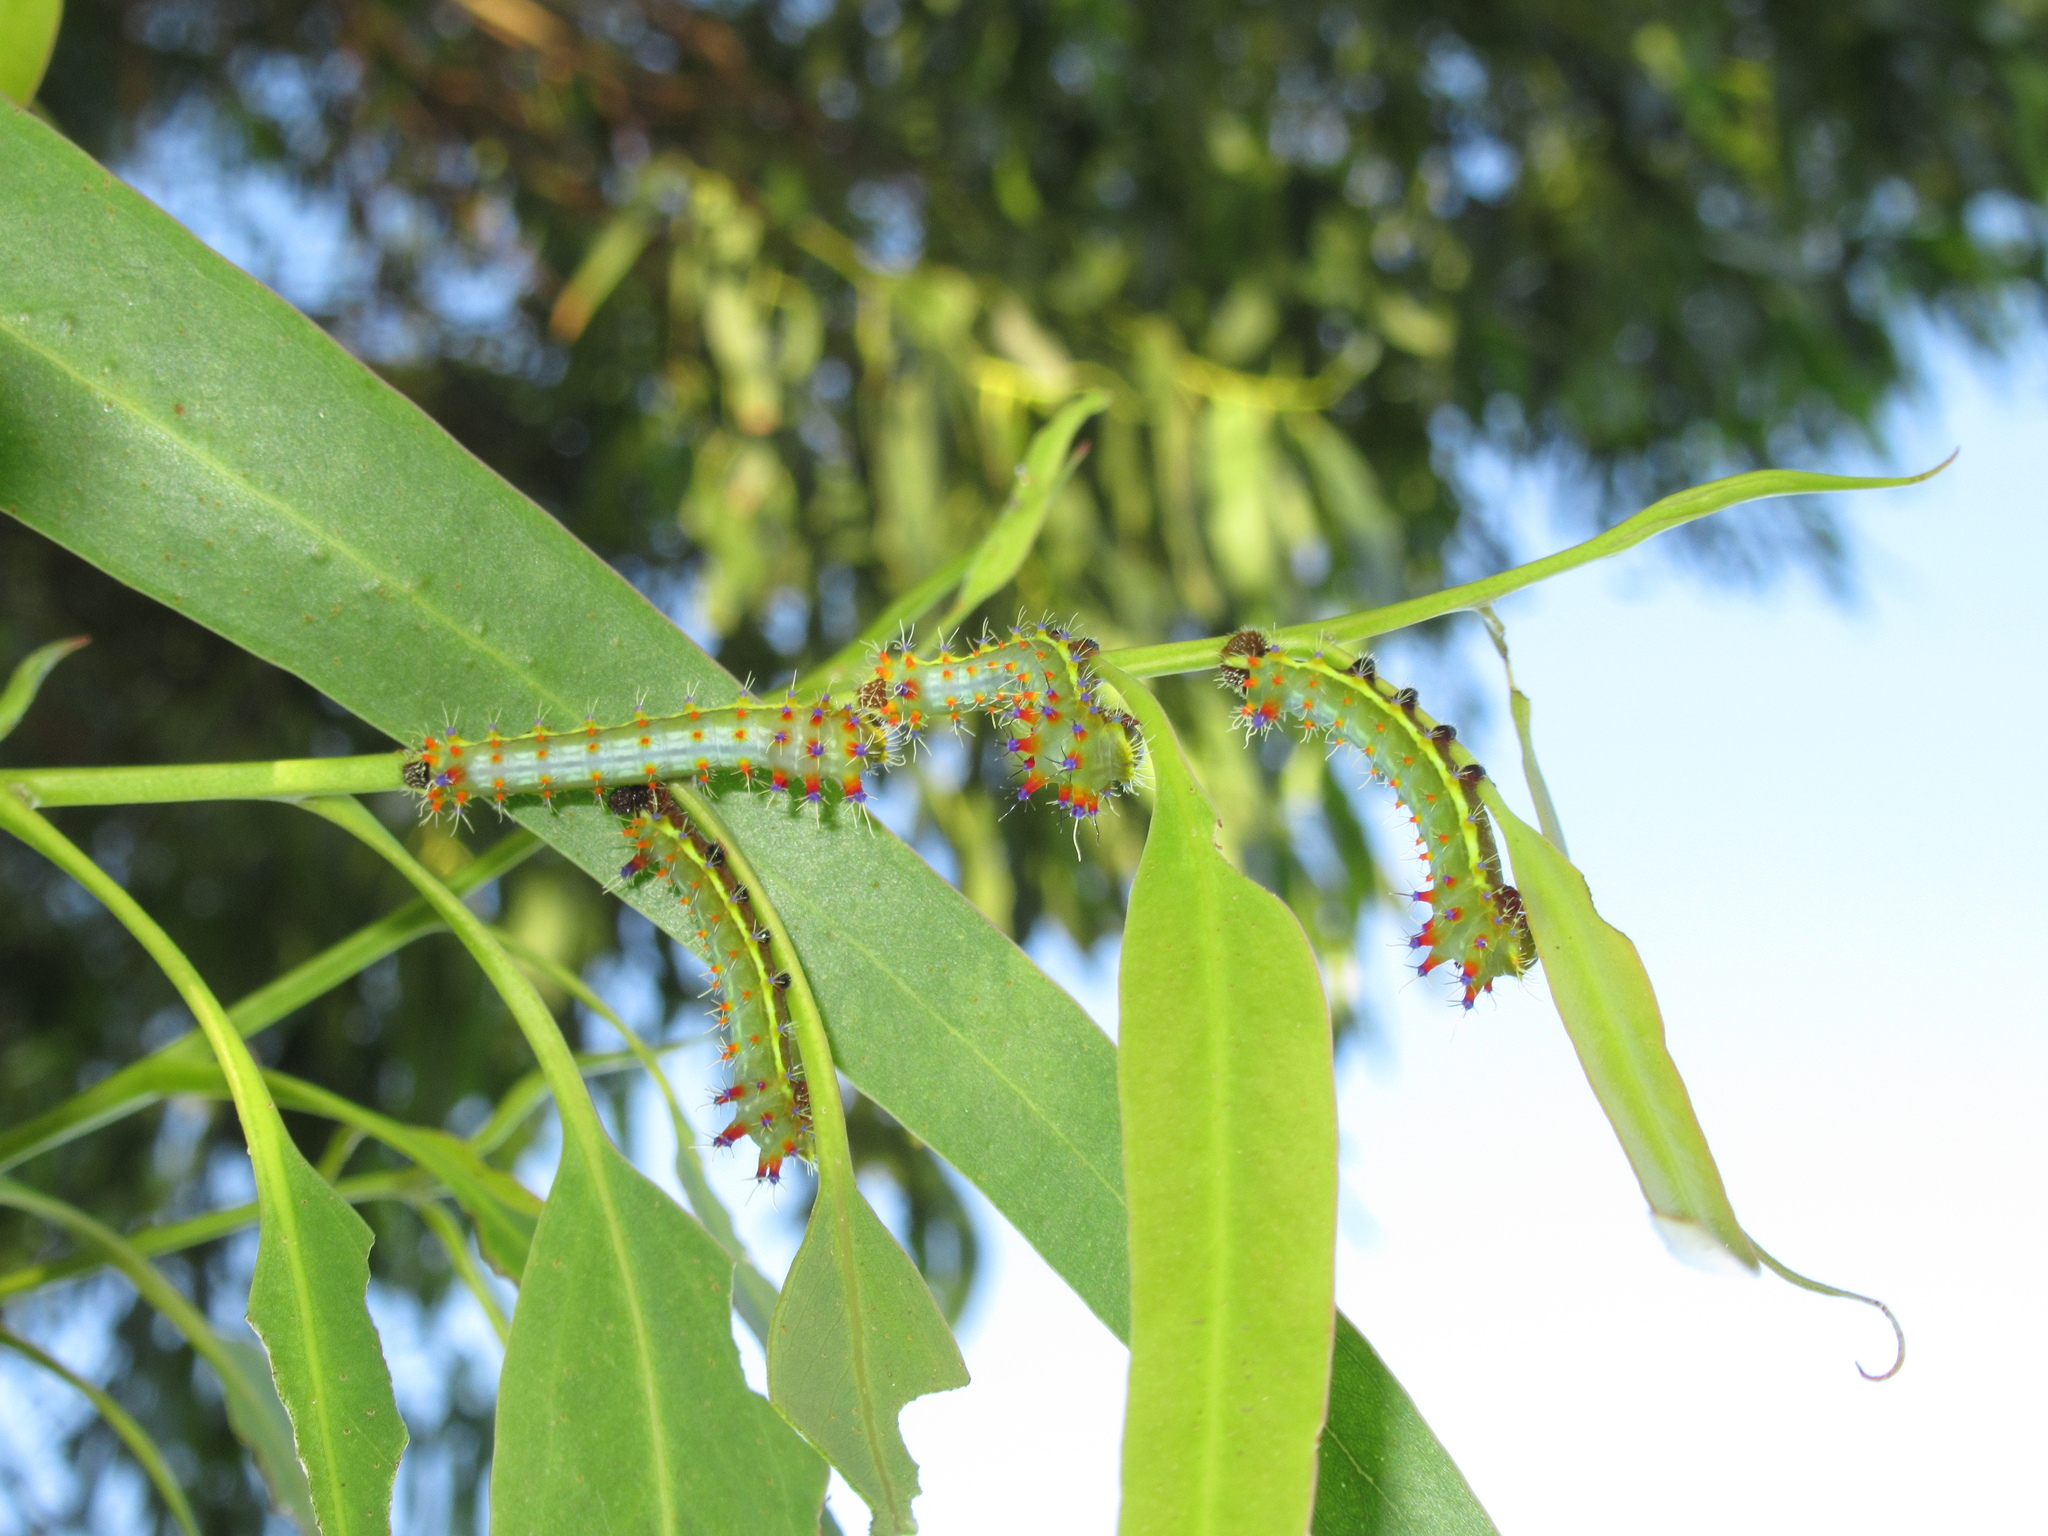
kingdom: Animalia
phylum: Arthropoda
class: Insecta
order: Lepidoptera
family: Saturniidae
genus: Opodiphthera
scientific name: Opodiphthera
